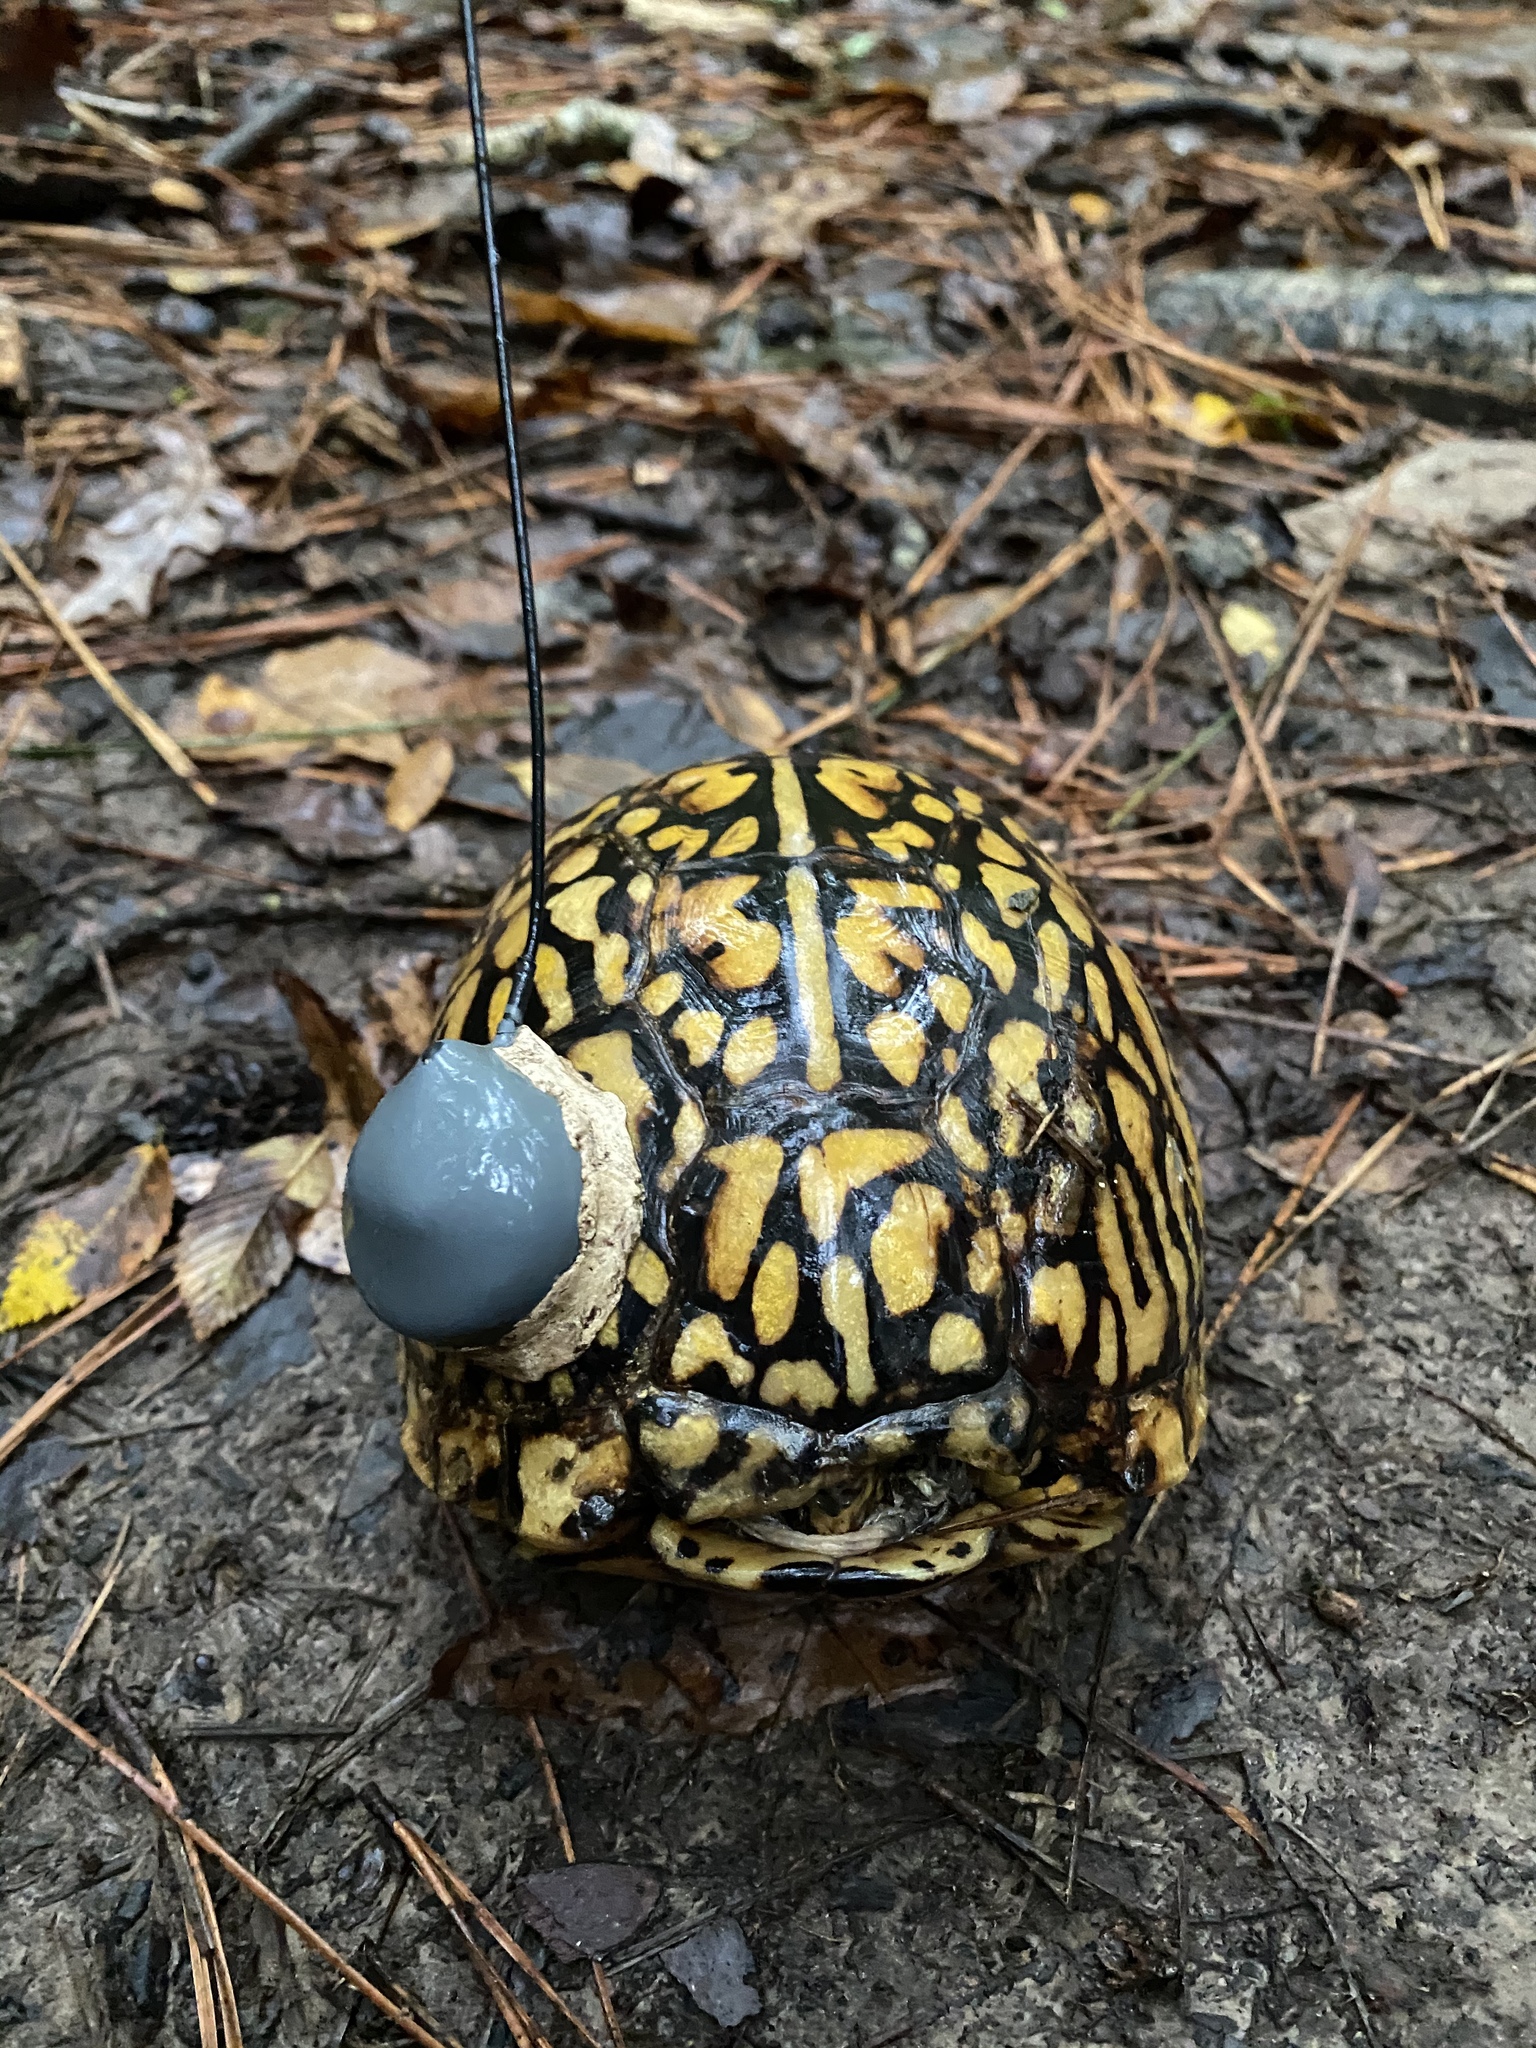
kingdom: Animalia
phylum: Chordata
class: Testudines
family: Emydidae
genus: Terrapene
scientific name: Terrapene carolina
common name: Common box turtle
